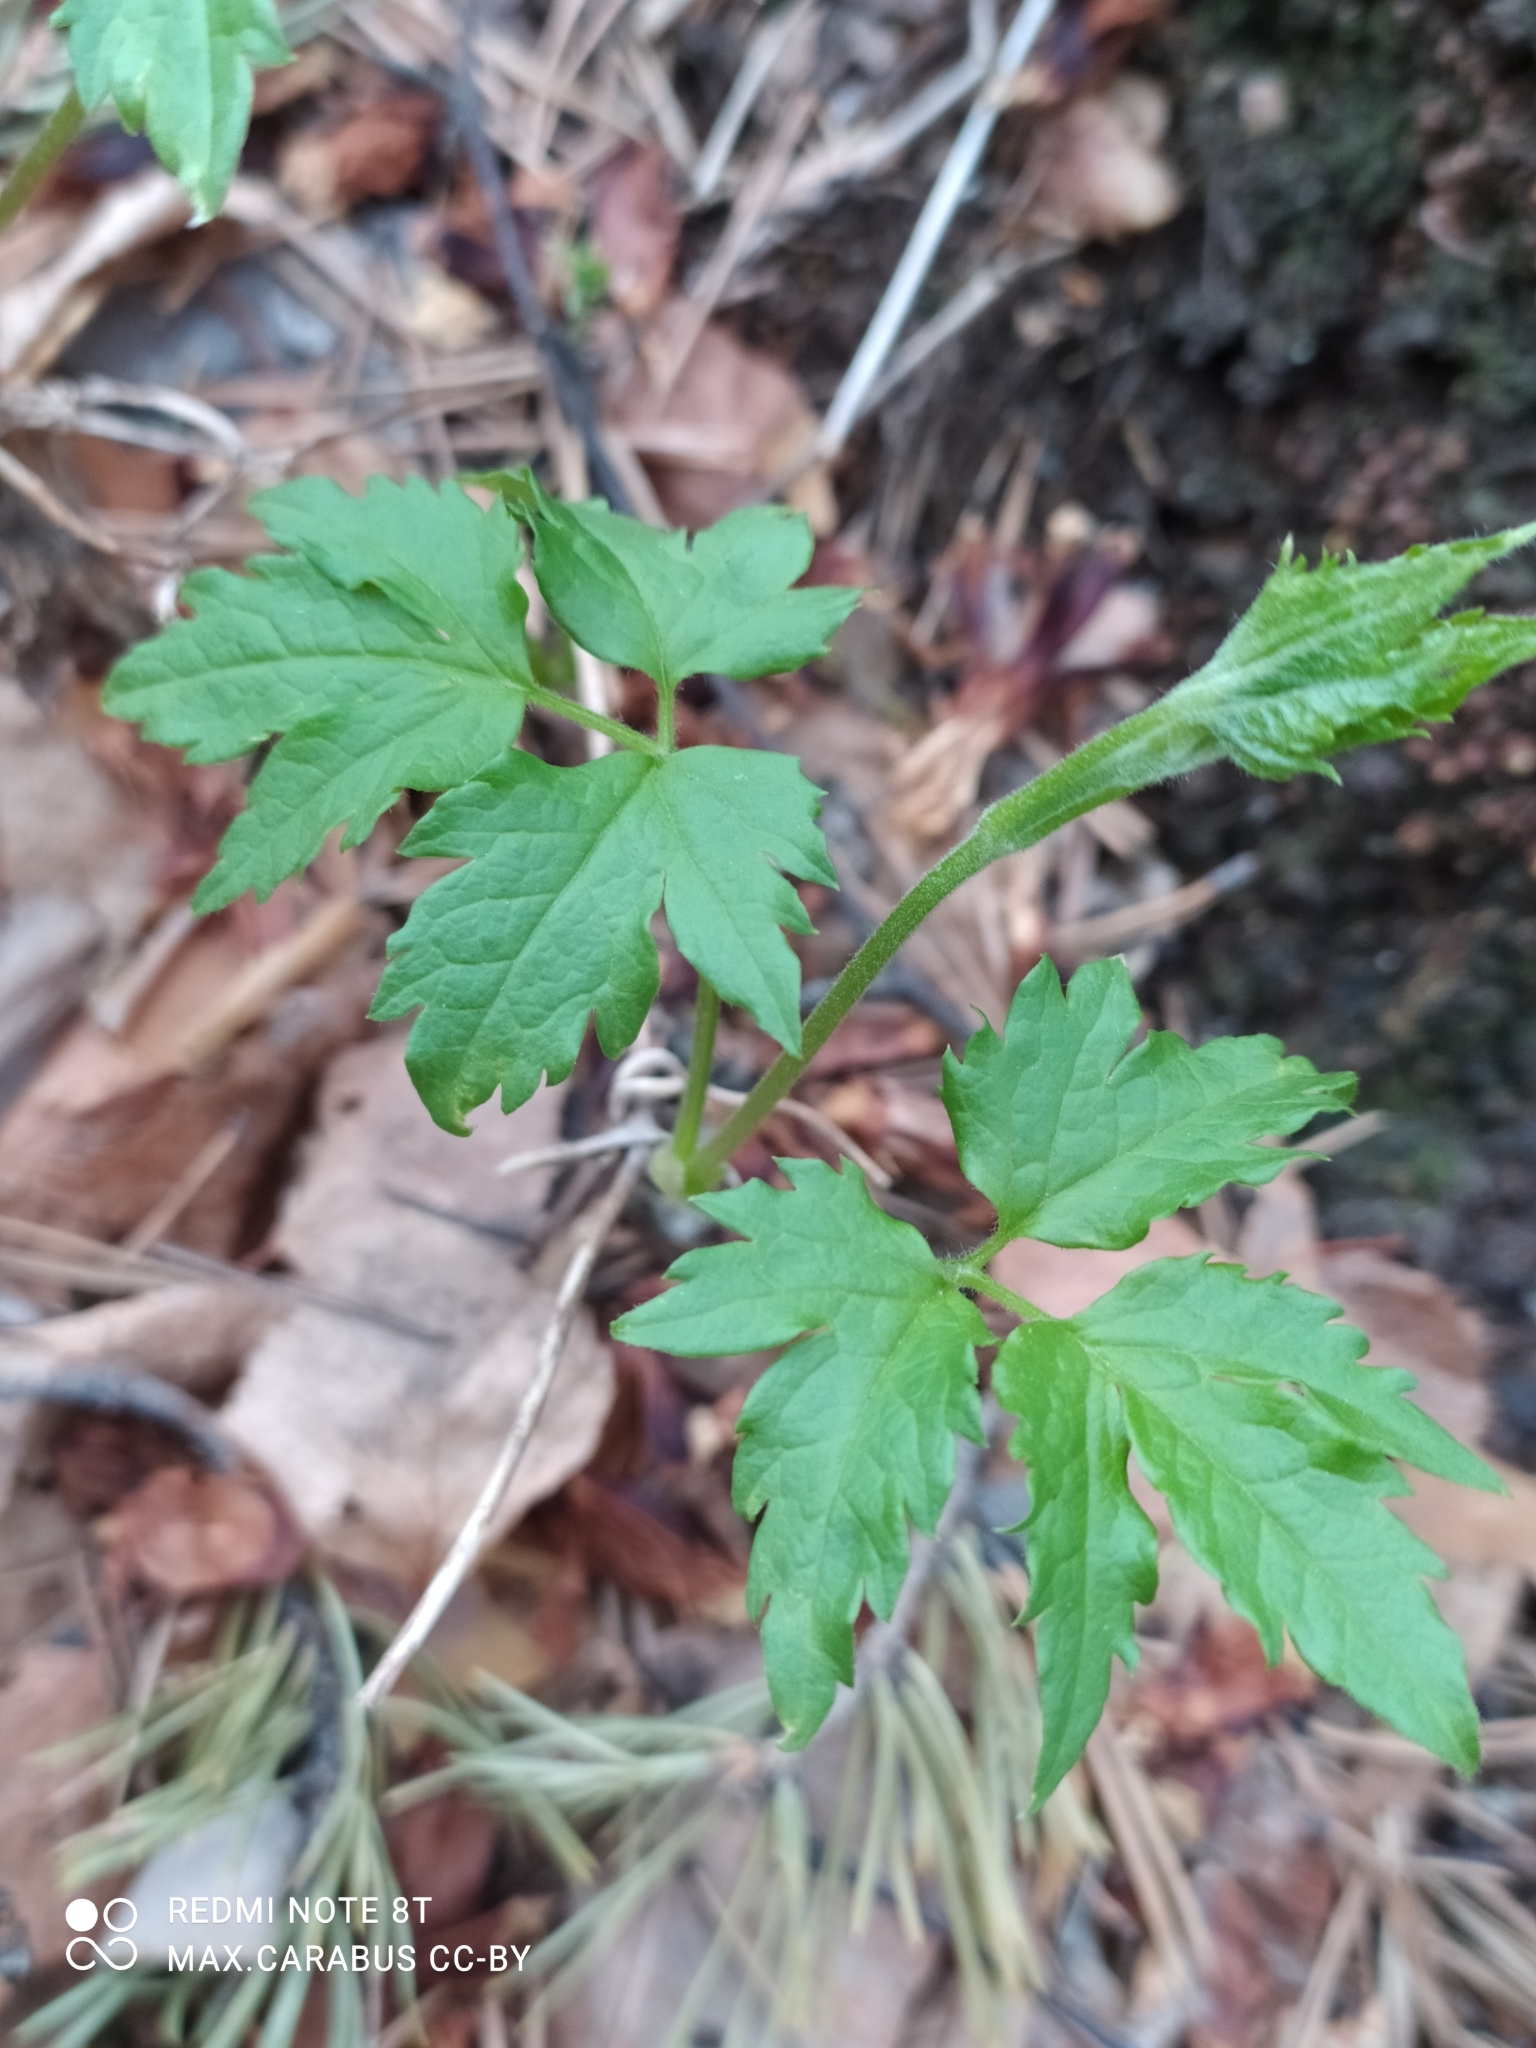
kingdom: Plantae
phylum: Tracheophyta
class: Magnoliopsida
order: Ranunculales
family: Ranunculaceae
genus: Clematis
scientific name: Clematis sibirica
